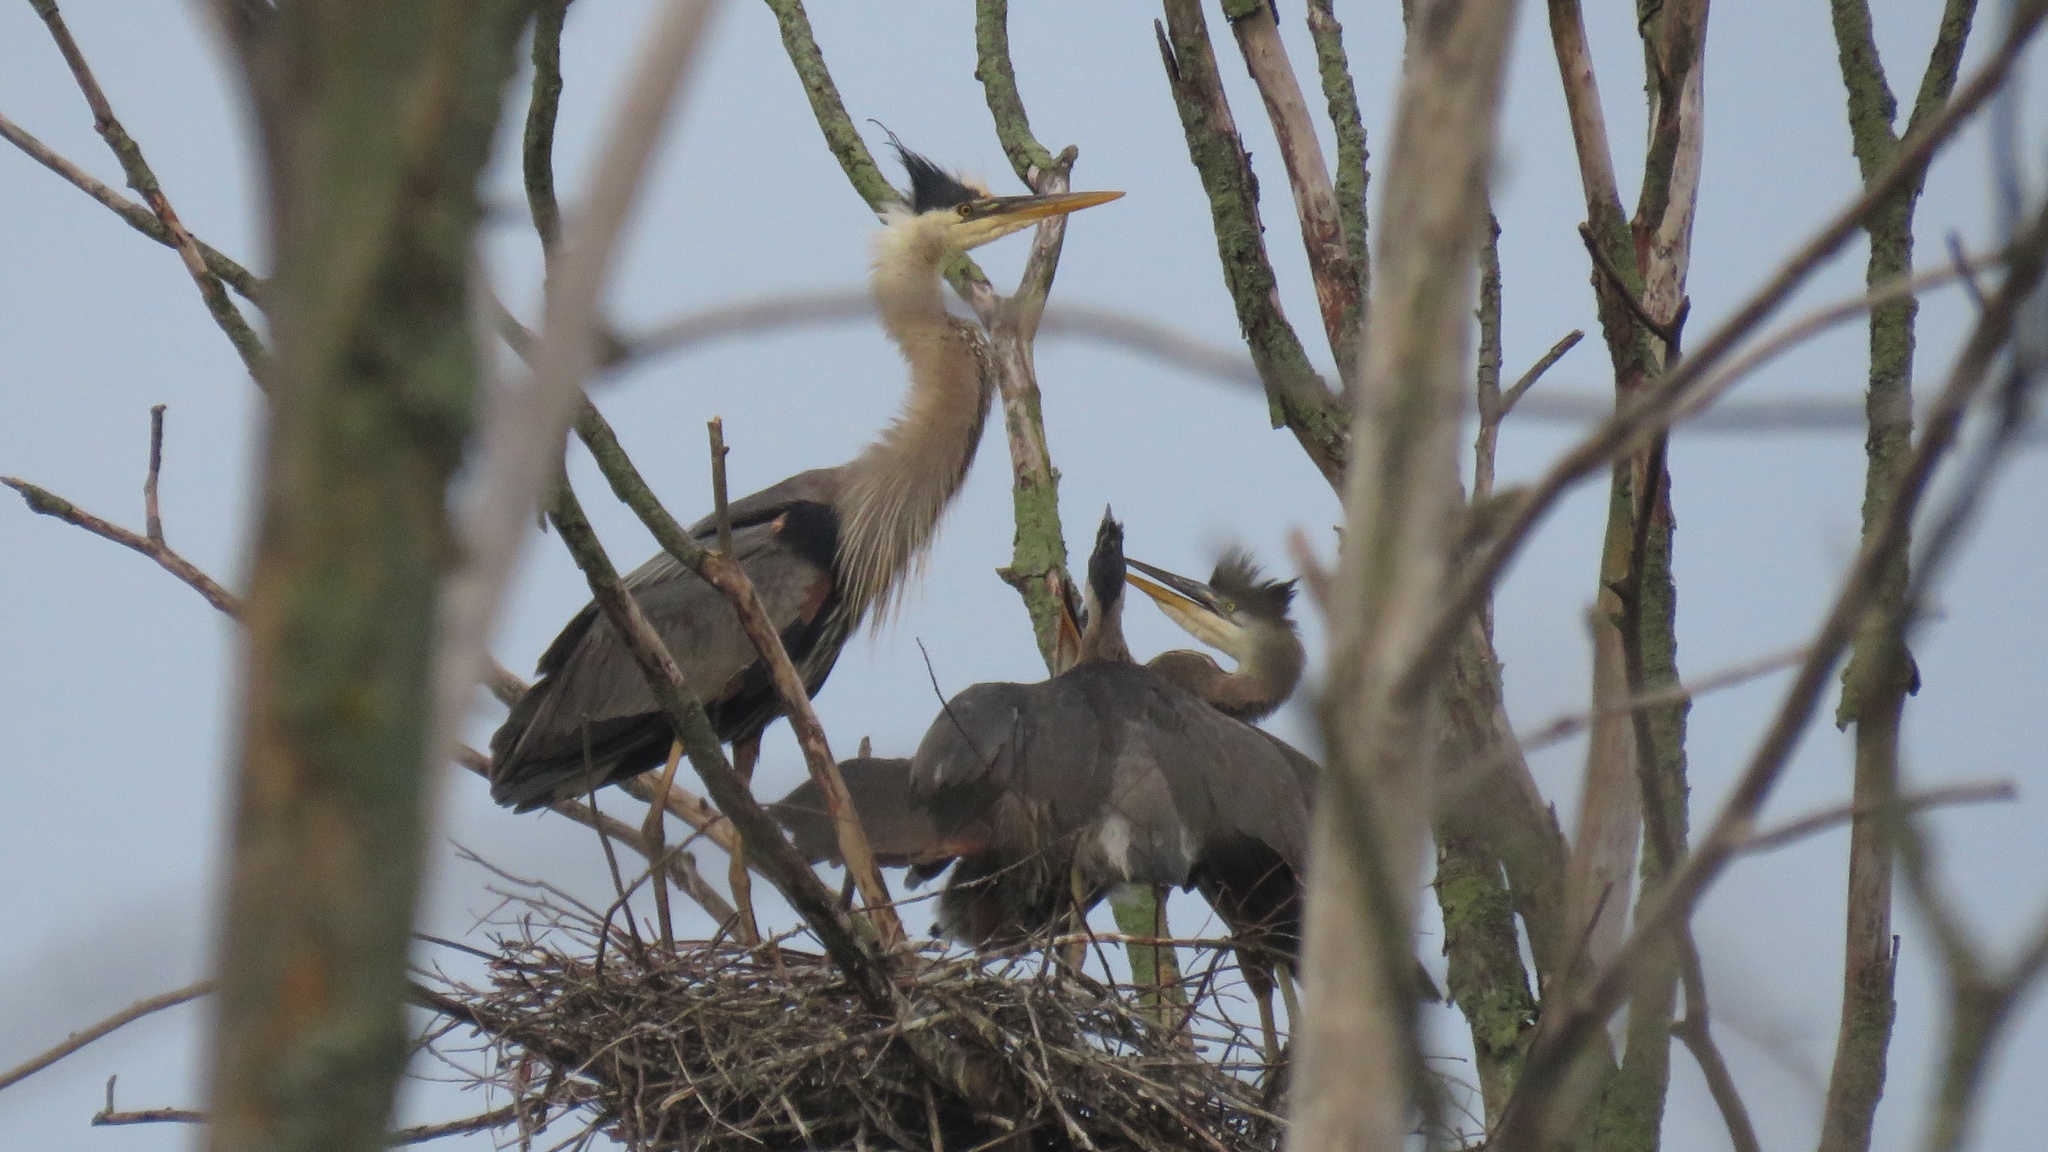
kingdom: Animalia
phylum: Chordata
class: Aves
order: Pelecaniformes
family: Ardeidae
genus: Ardea
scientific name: Ardea herodias
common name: Great blue heron
